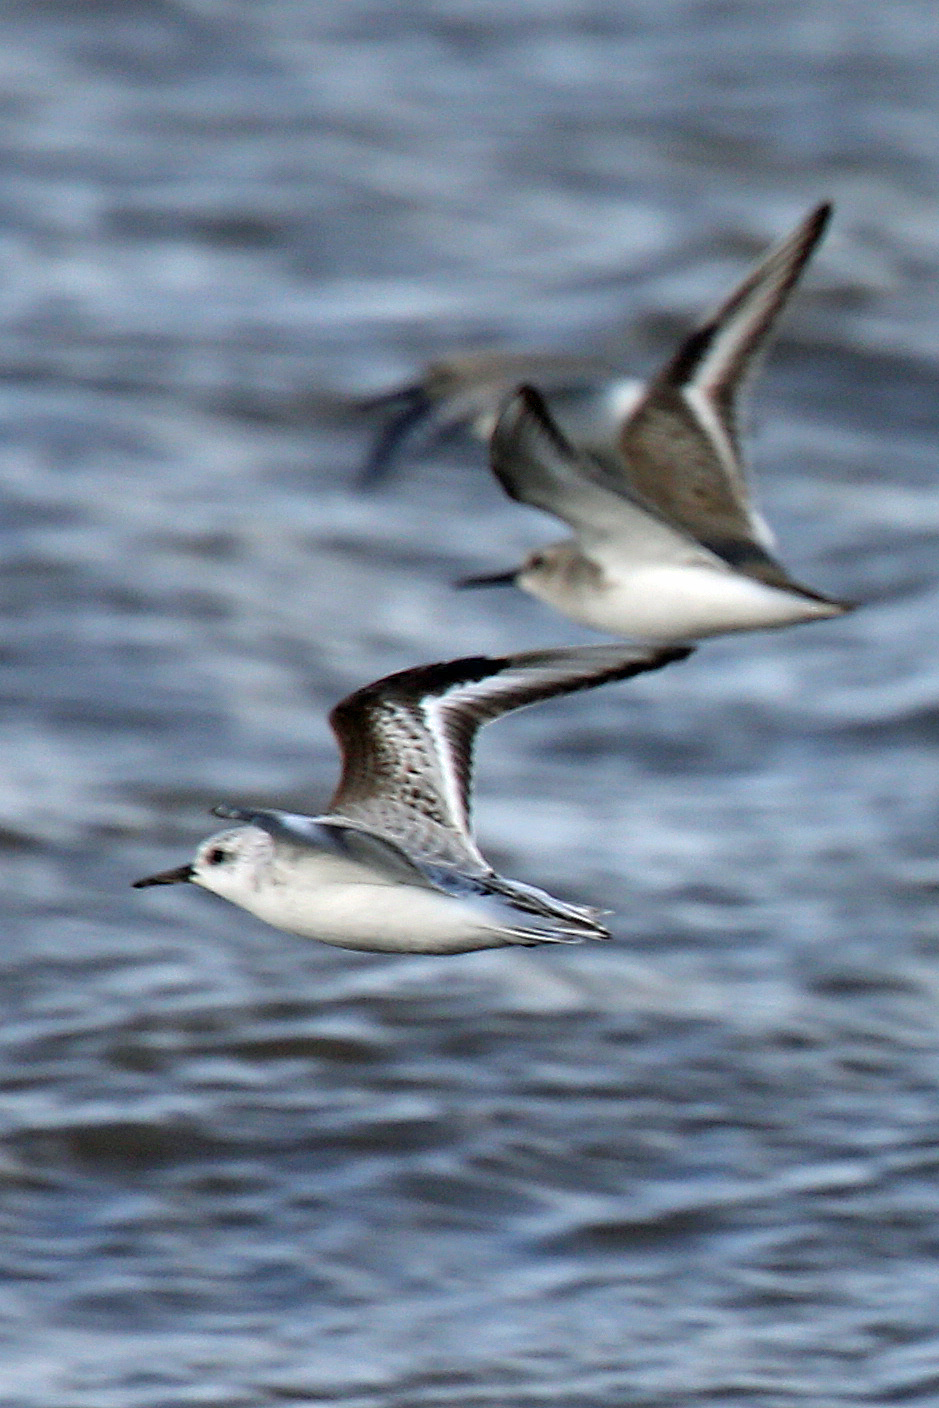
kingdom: Animalia
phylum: Chordata
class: Aves
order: Charadriiformes
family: Scolopacidae
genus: Calidris
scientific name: Calidris alba
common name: Sanderling
